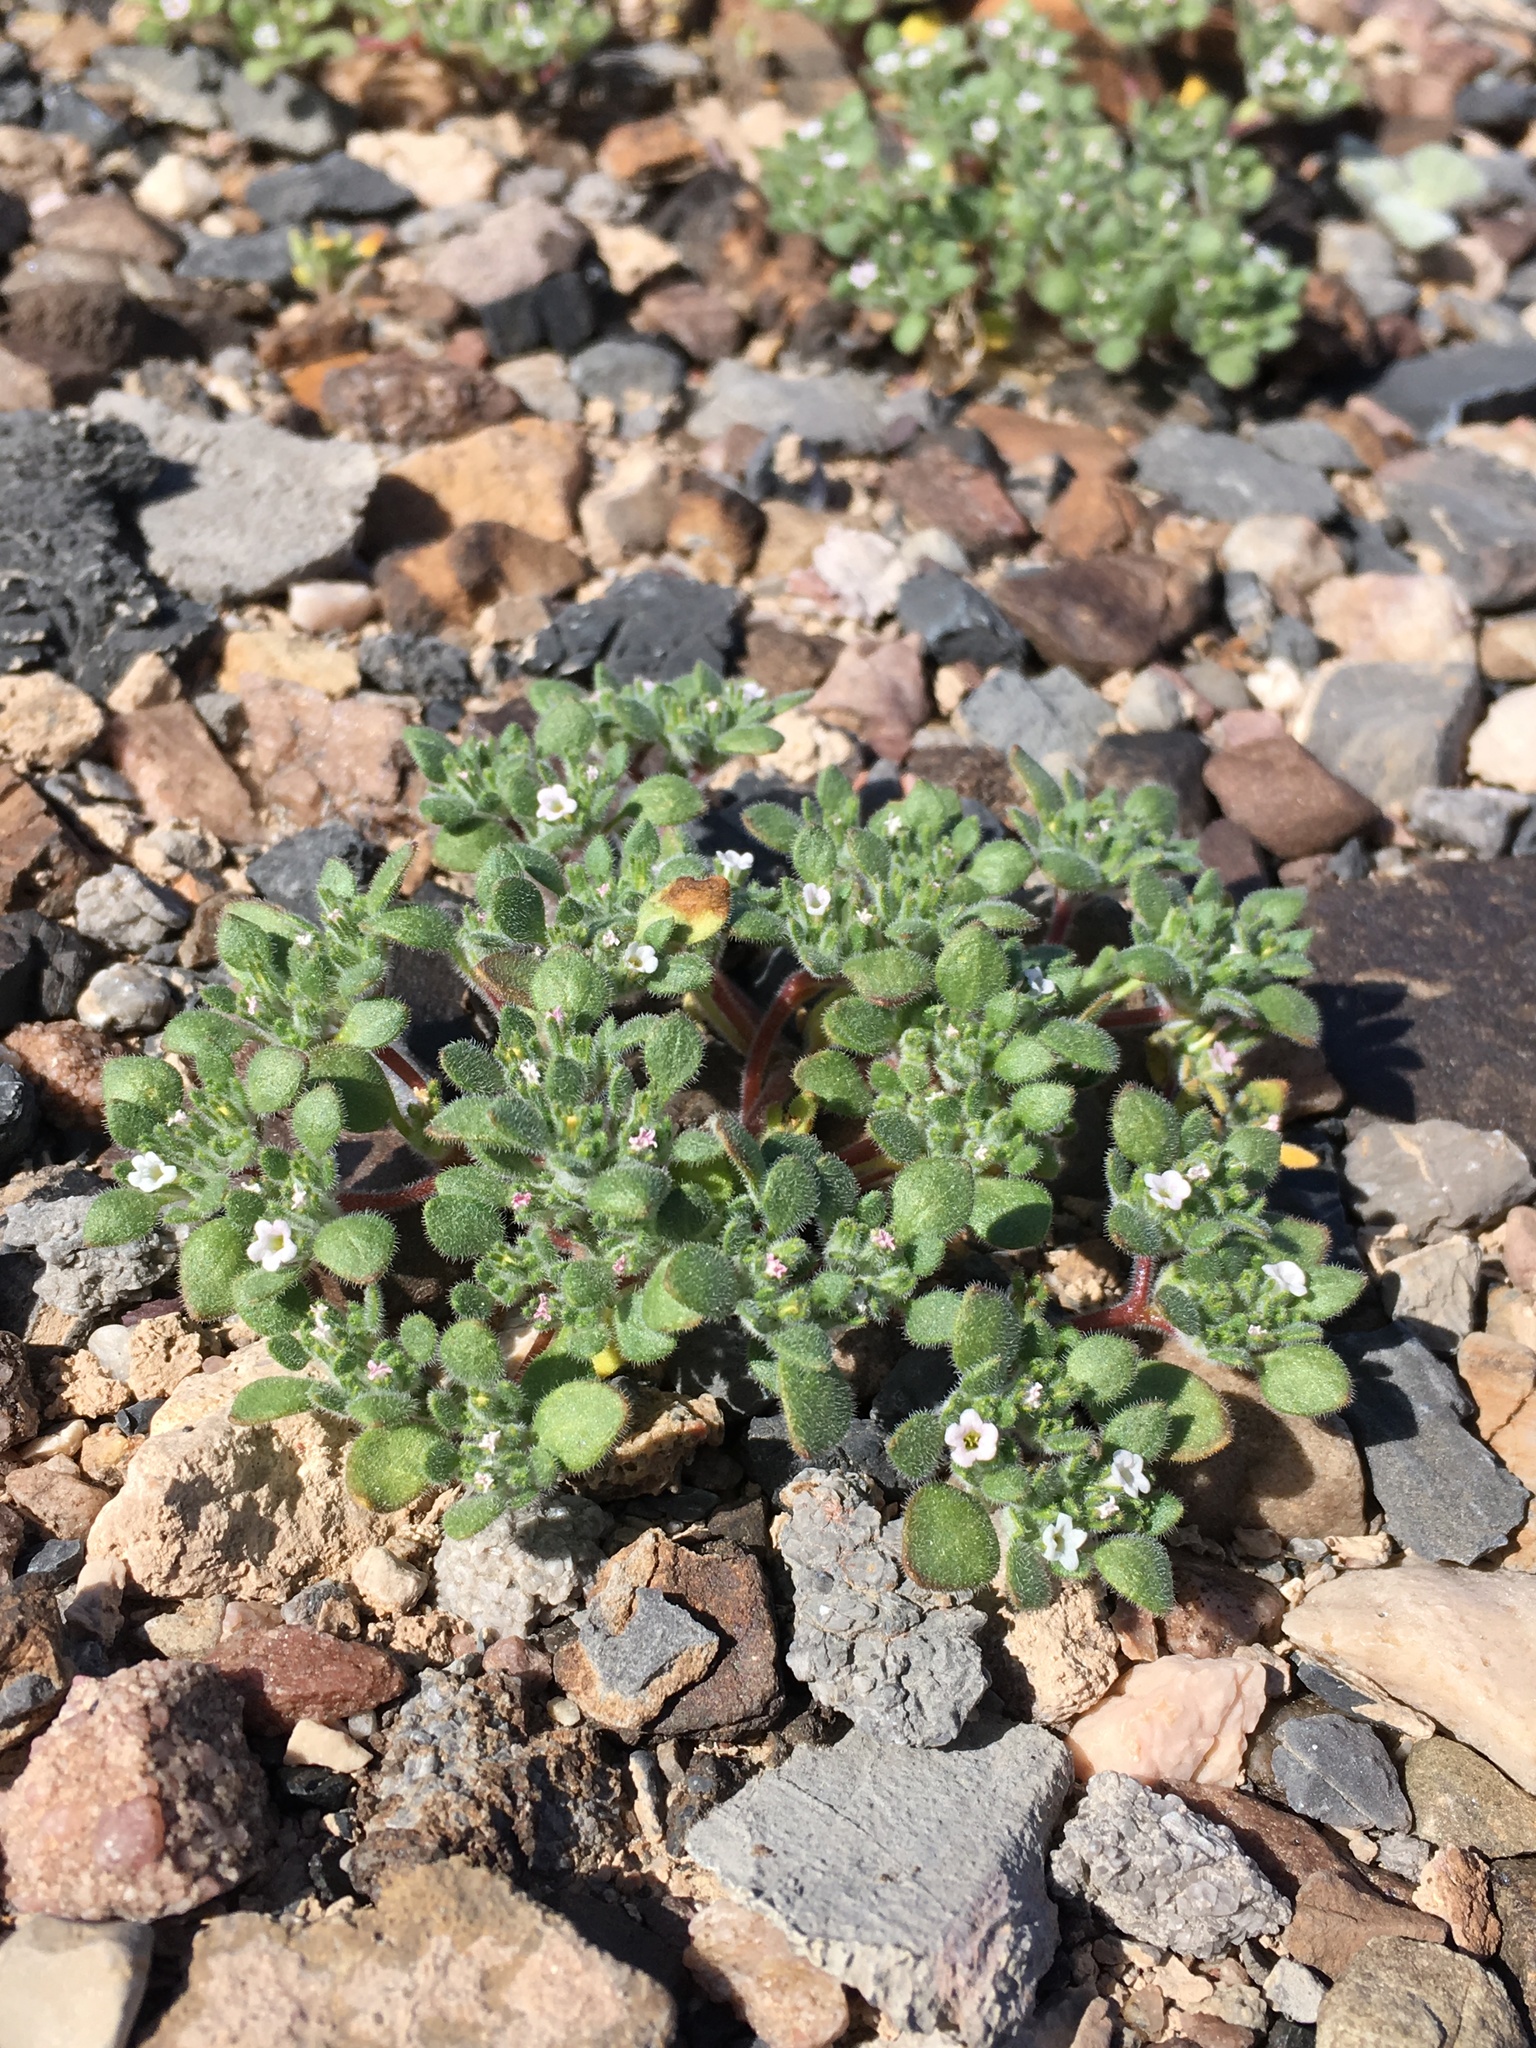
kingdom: Plantae
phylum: Tracheophyta
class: Magnoliopsida
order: Boraginales
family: Namaceae
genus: Nama
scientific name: Nama pusilla
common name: Eggleaf nama
